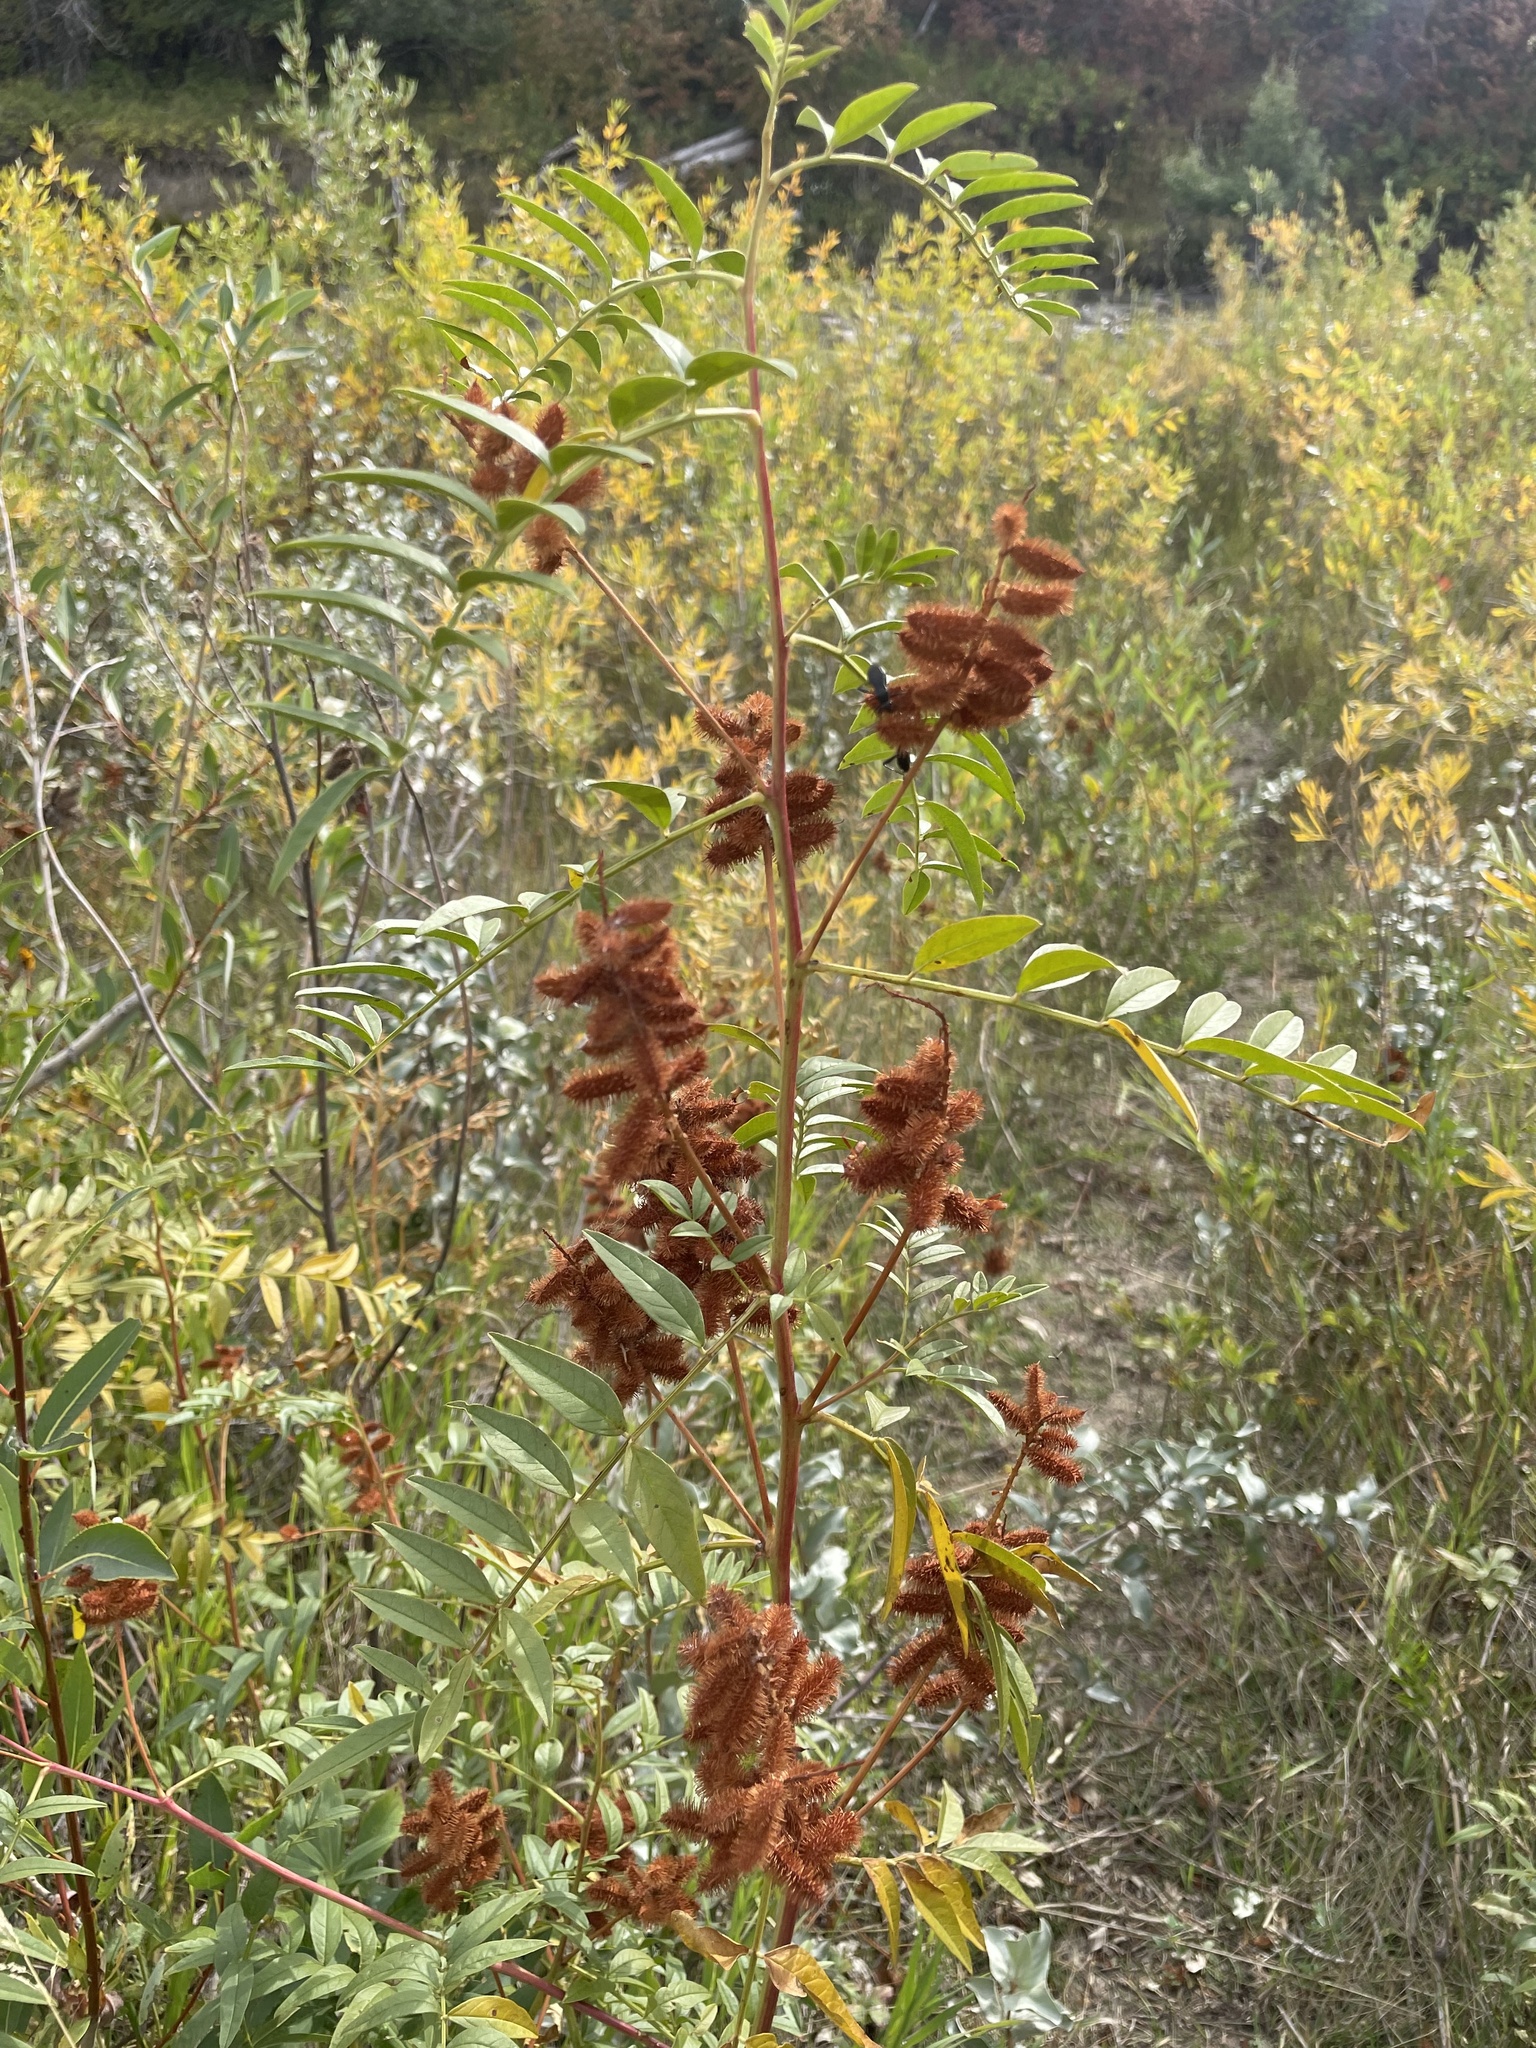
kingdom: Plantae
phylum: Tracheophyta
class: Magnoliopsida
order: Fabales
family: Fabaceae
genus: Glycyrrhiza
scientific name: Glycyrrhiza lepidota
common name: American liquorice
